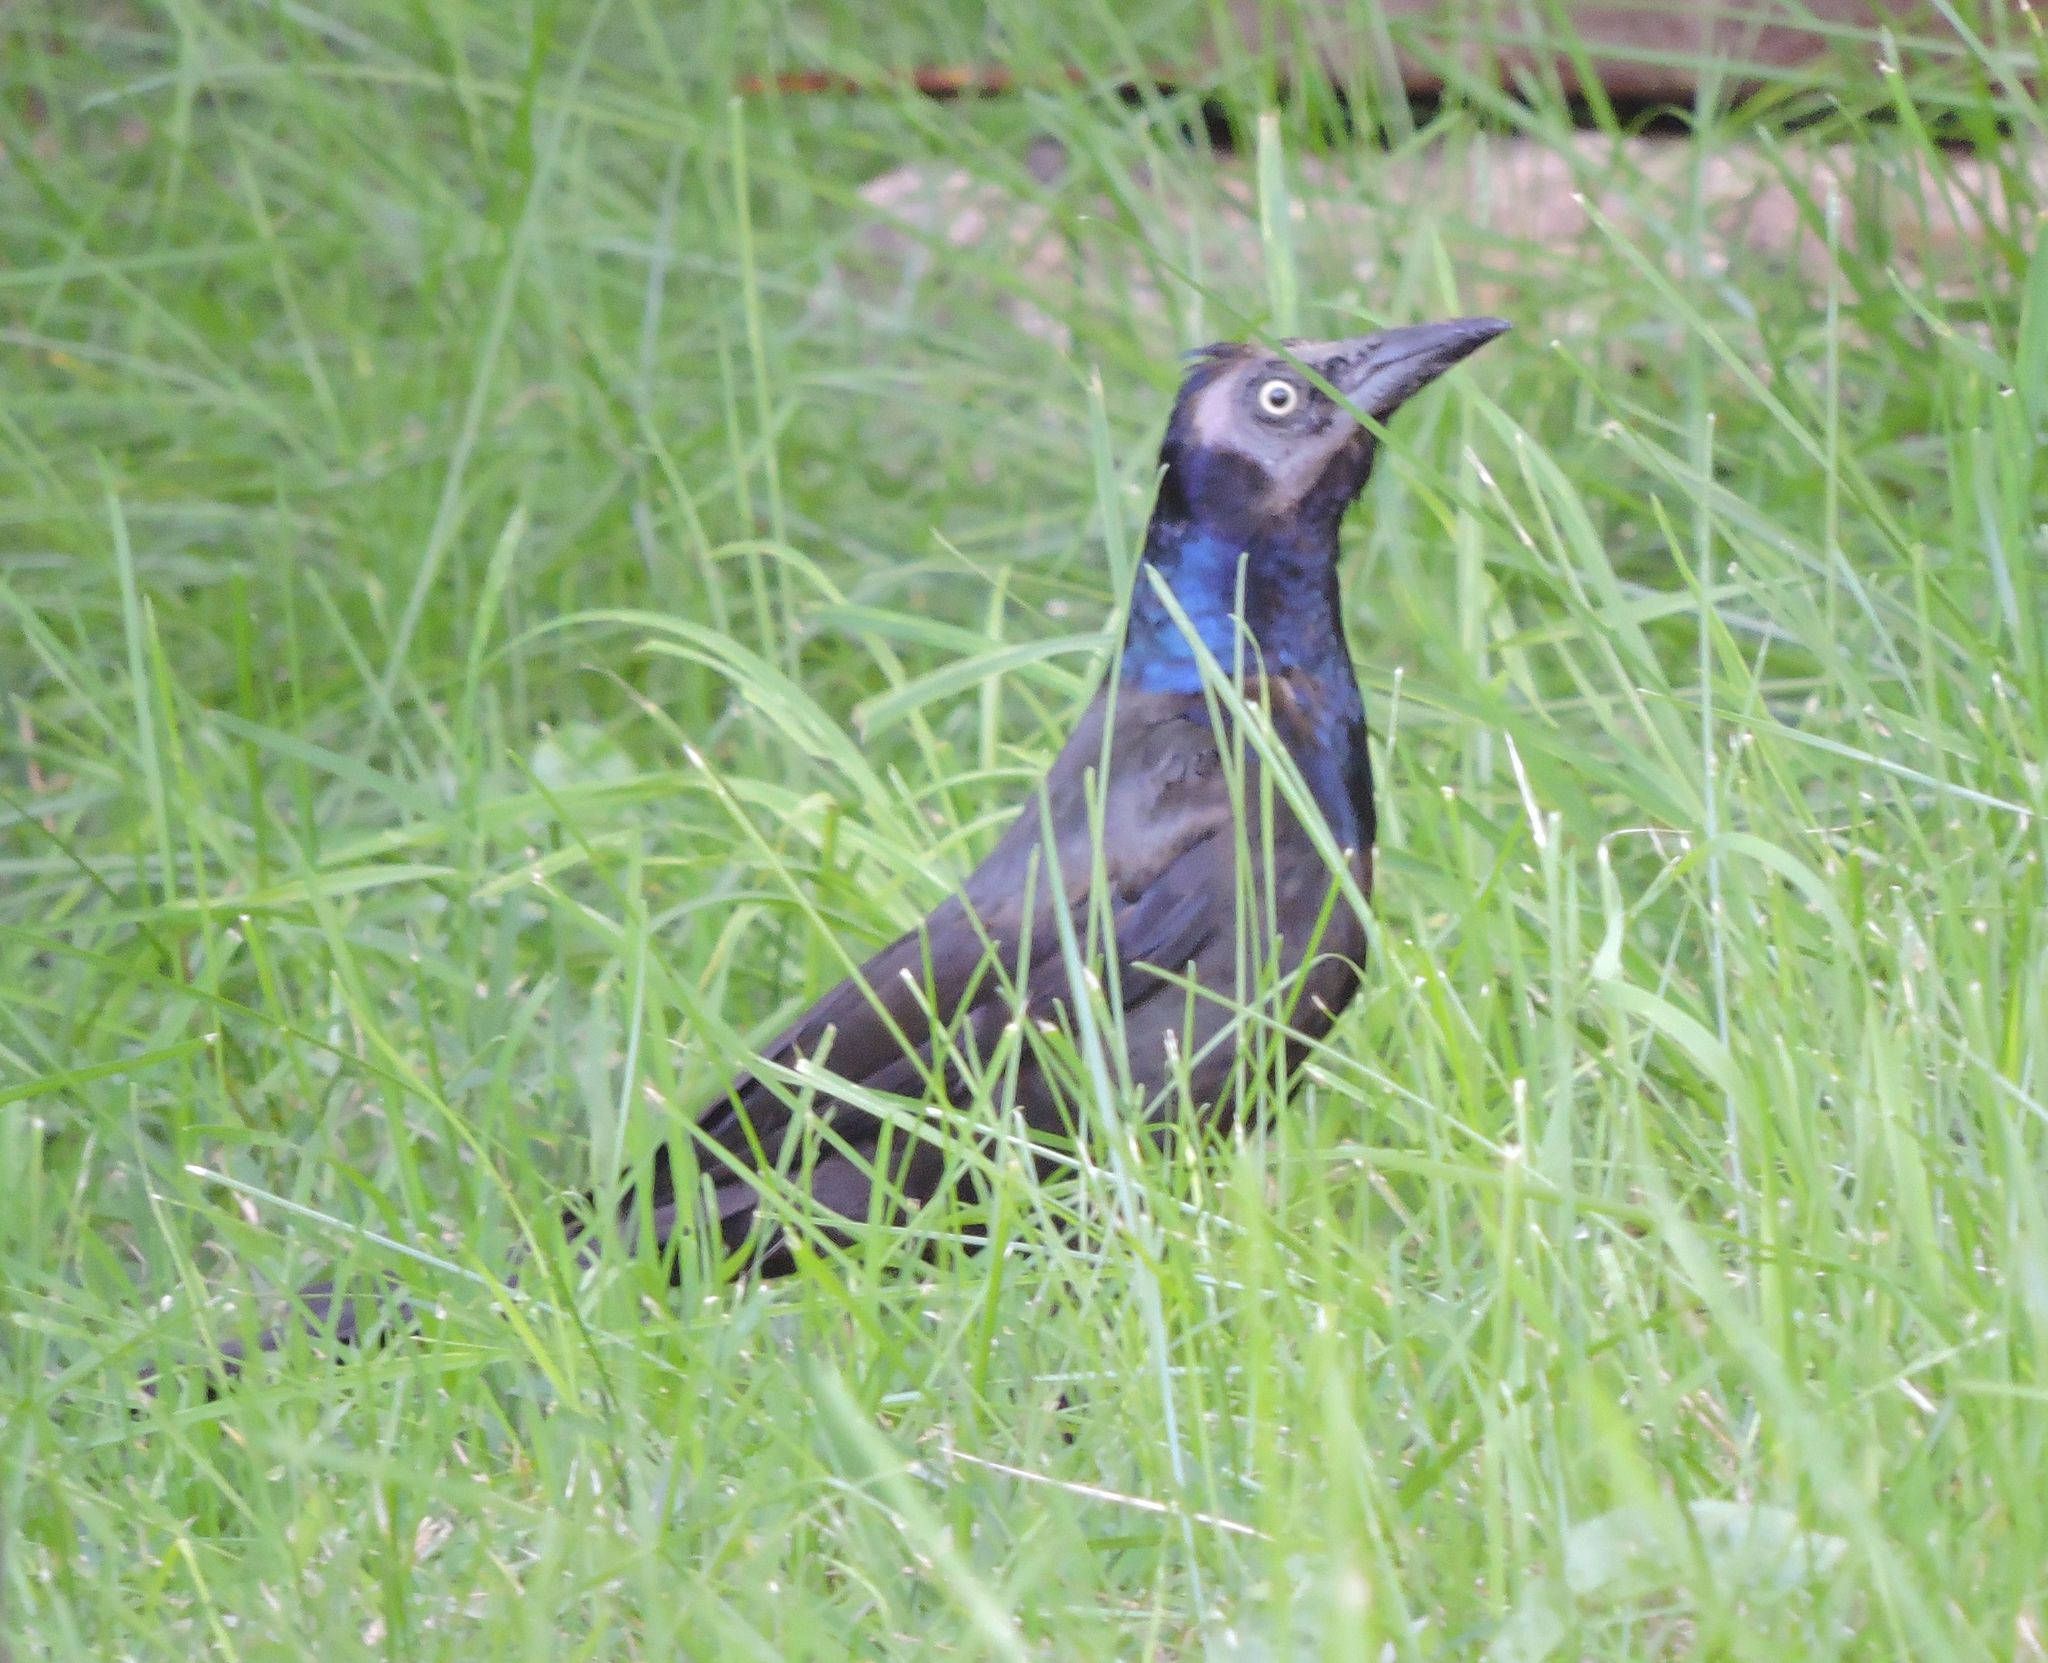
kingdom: Animalia
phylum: Chordata
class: Aves
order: Passeriformes
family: Icteridae
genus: Quiscalus
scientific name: Quiscalus quiscula
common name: Common grackle
